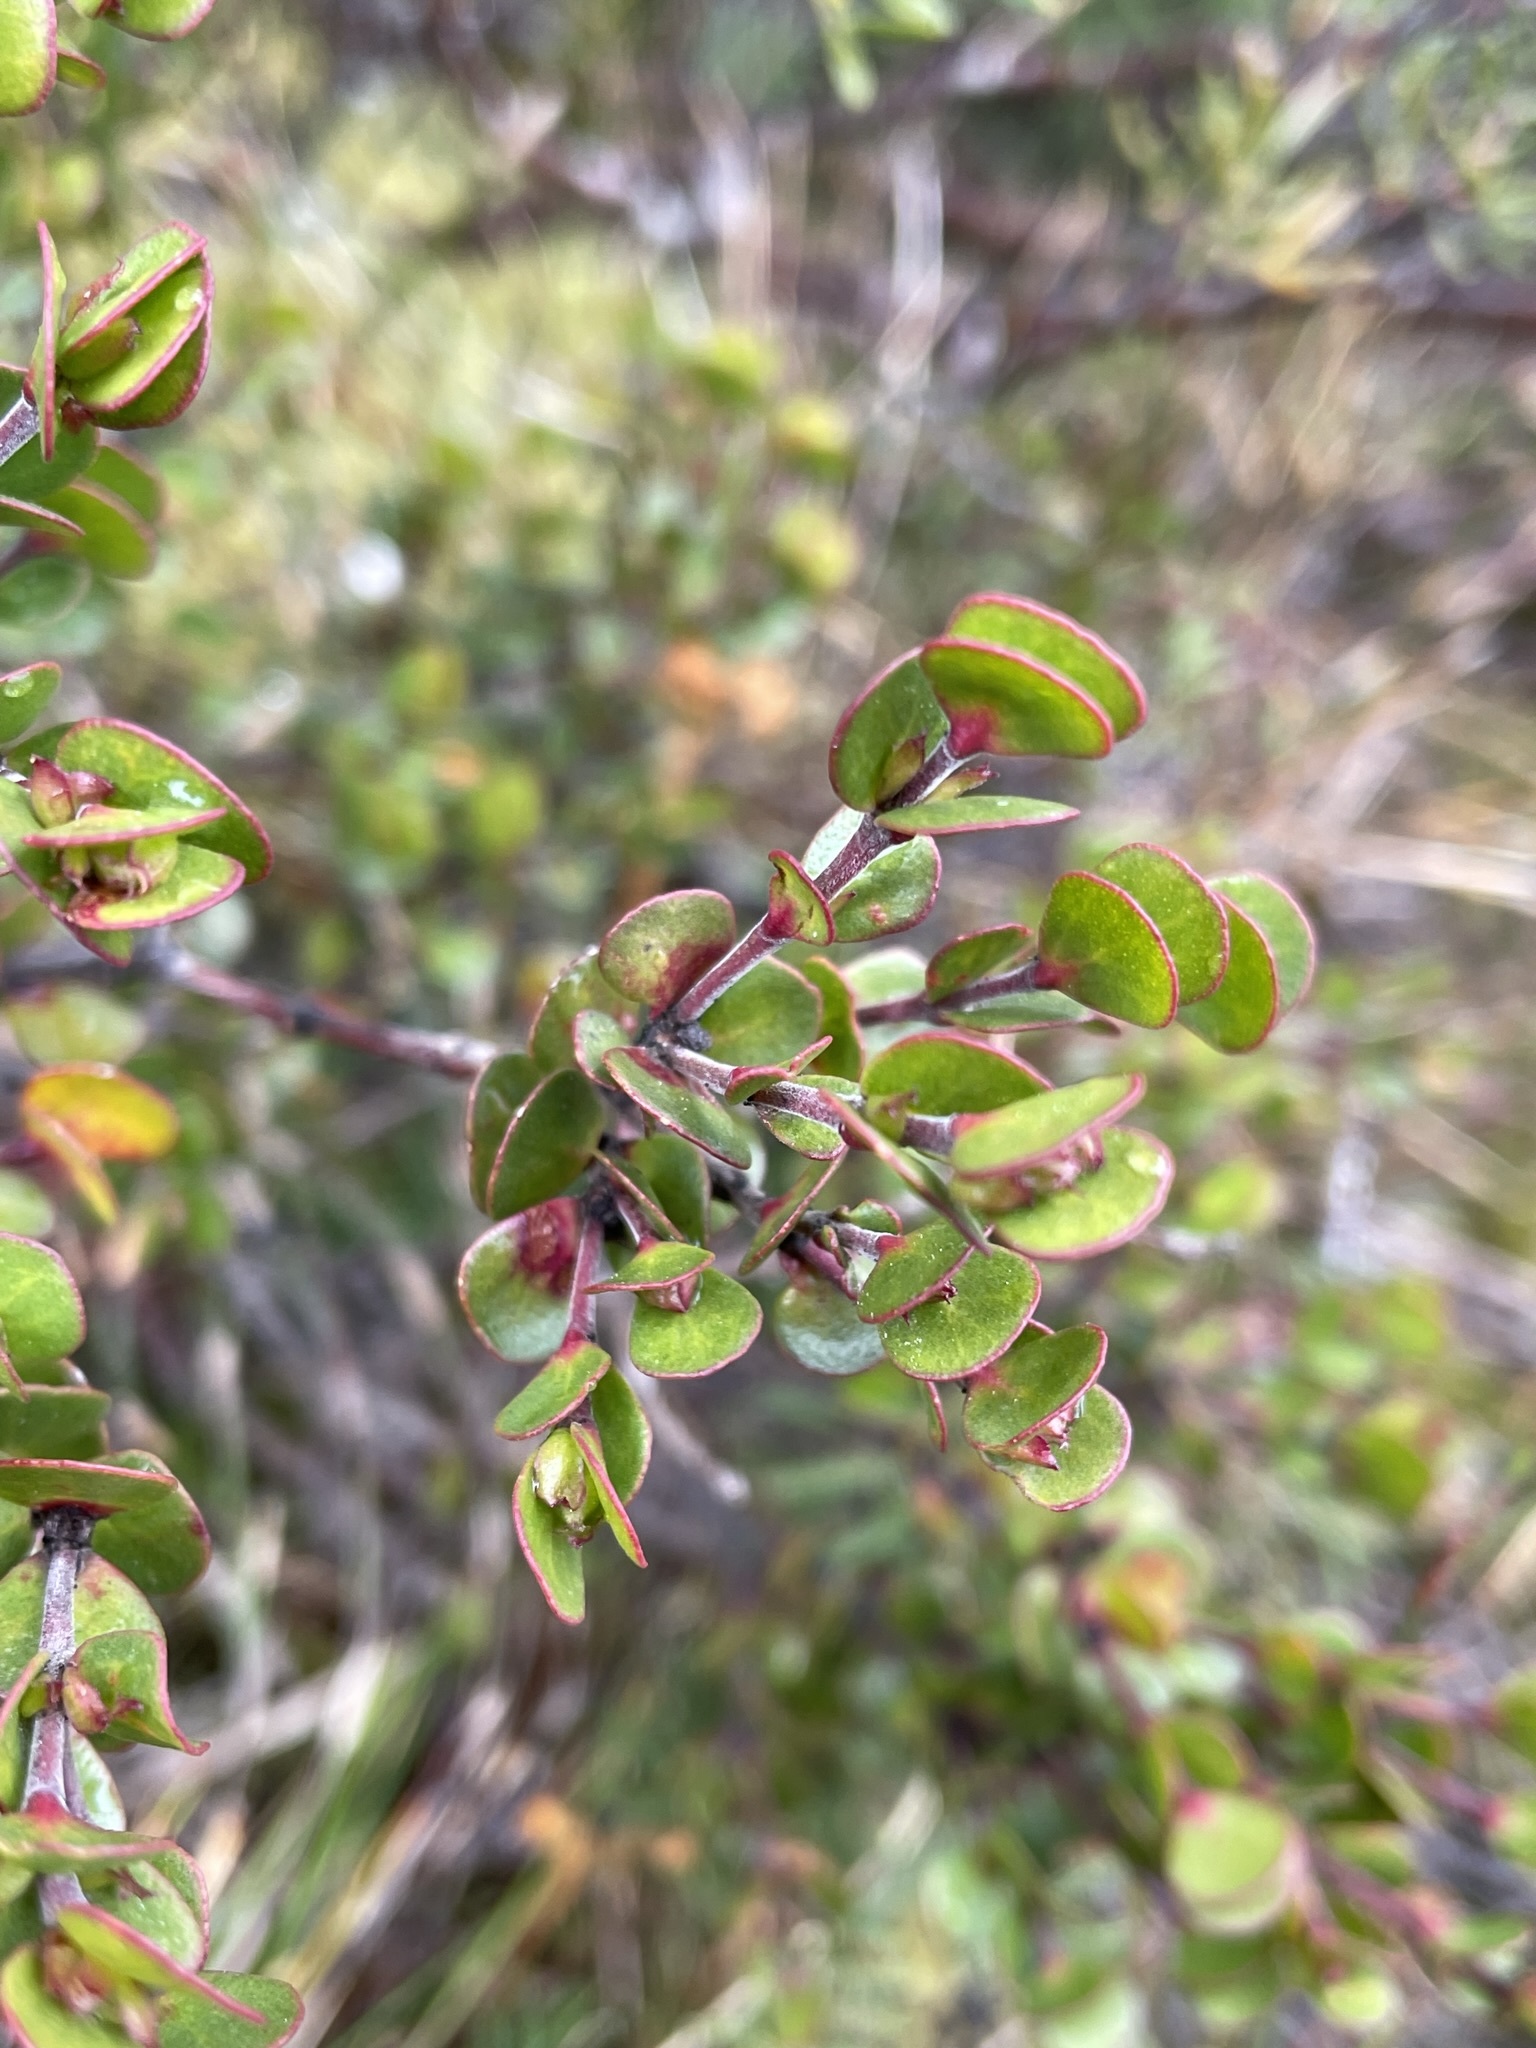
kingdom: Plantae
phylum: Tracheophyta
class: Magnoliopsida
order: Sapindales
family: Rutaceae
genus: Boronia
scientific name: Boronia rhomboidea
